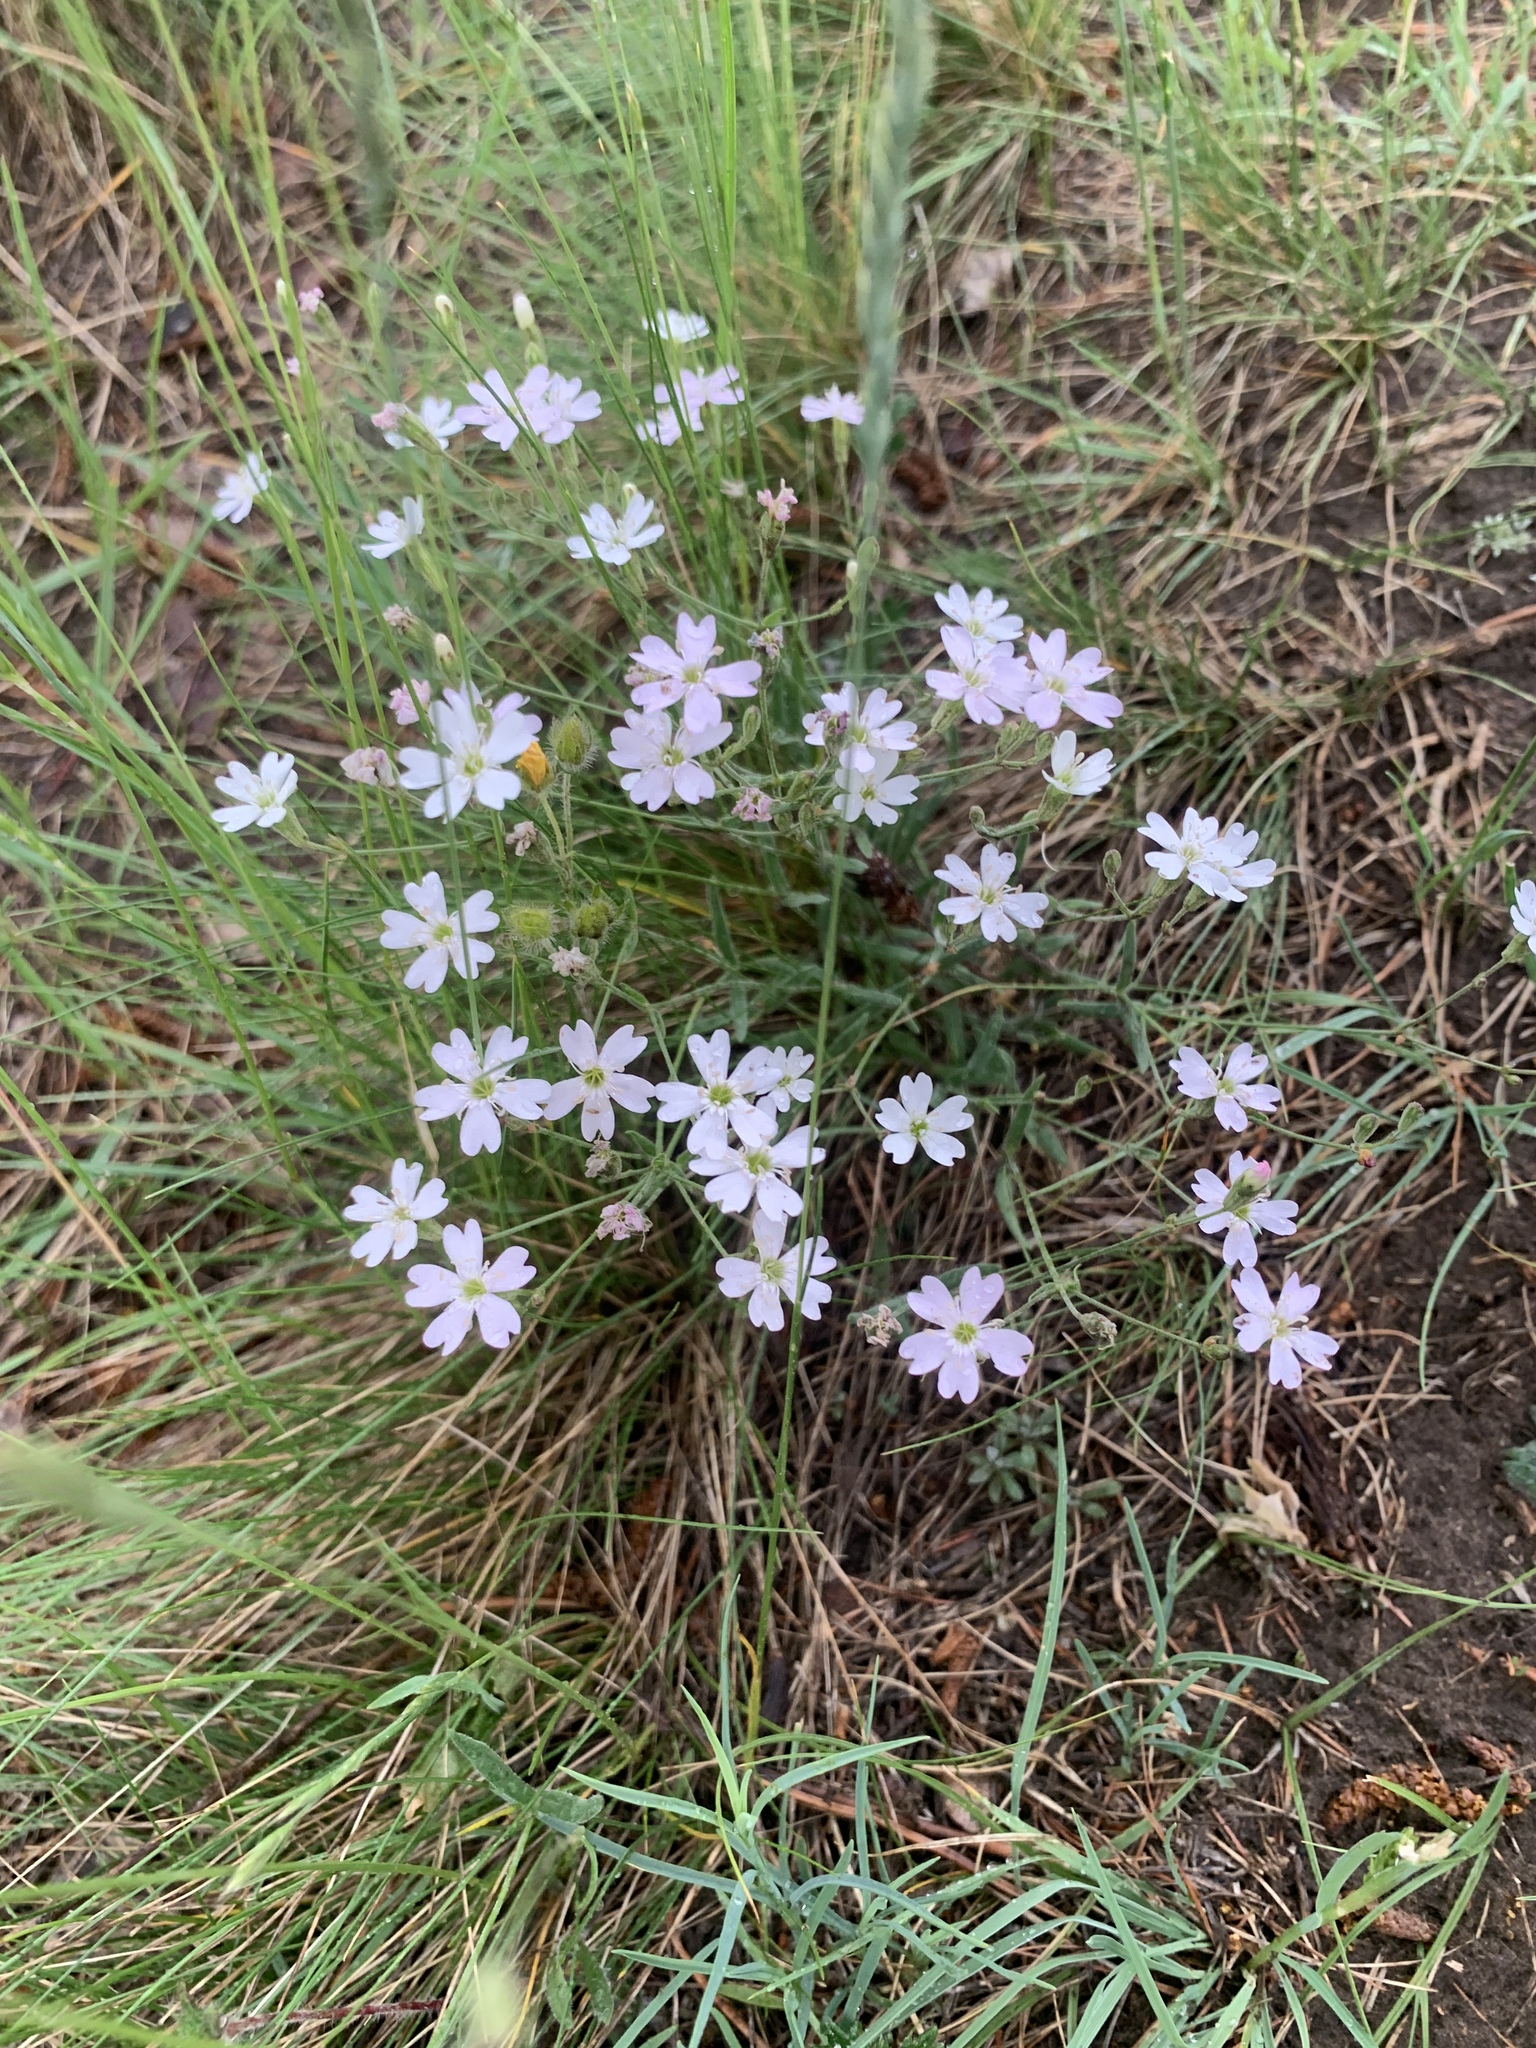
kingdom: Plantae
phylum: Tracheophyta
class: Magnoliopsida
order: Caryophyllales
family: Caryophyllaceae
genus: Silene
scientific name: Silene orientalimongolica
